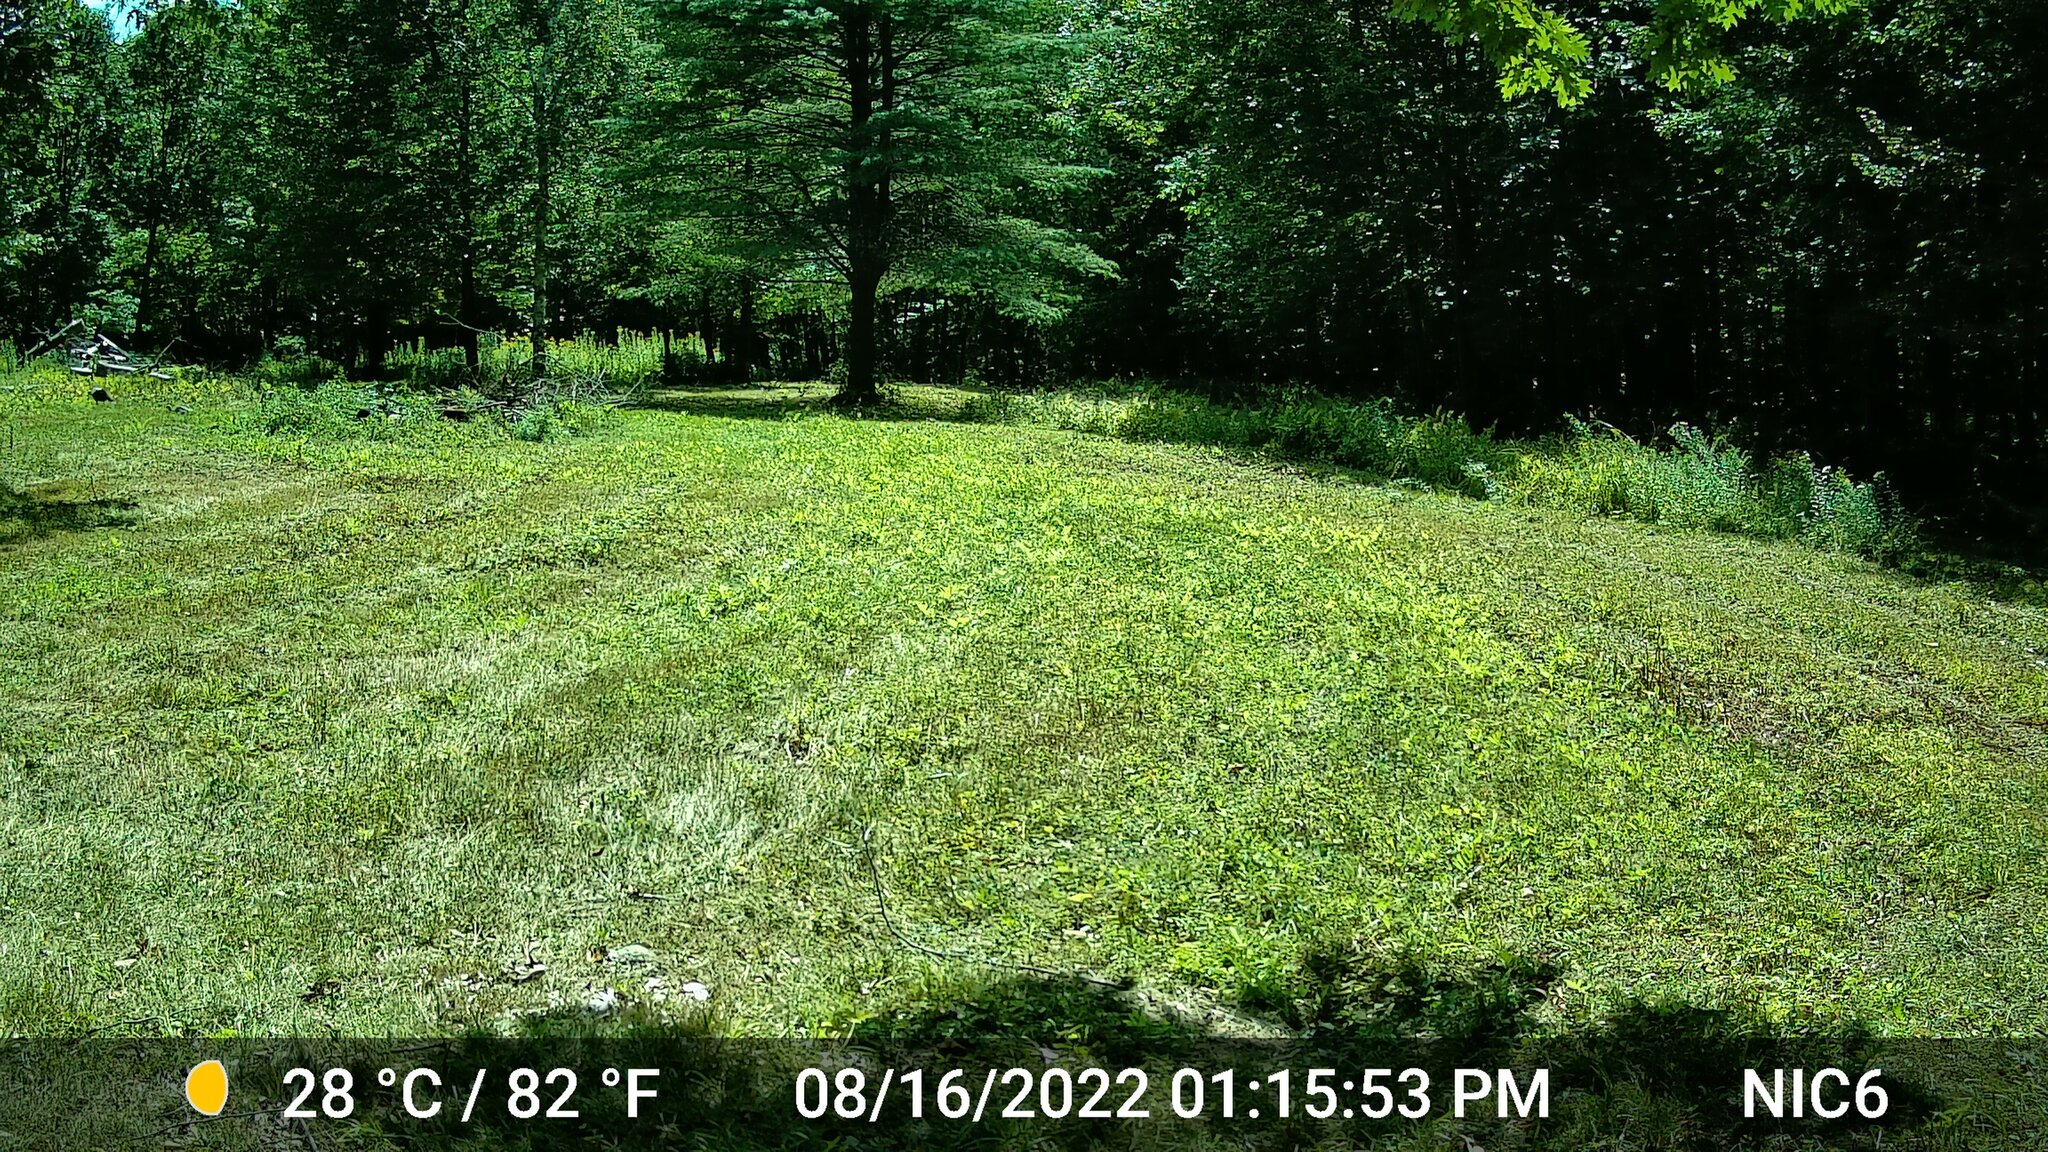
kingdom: Animalia
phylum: Chordata
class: Aves
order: Galliformes
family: Phasianidae
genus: Meleagris
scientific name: Meleagris gallopavo
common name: Wild turkey
